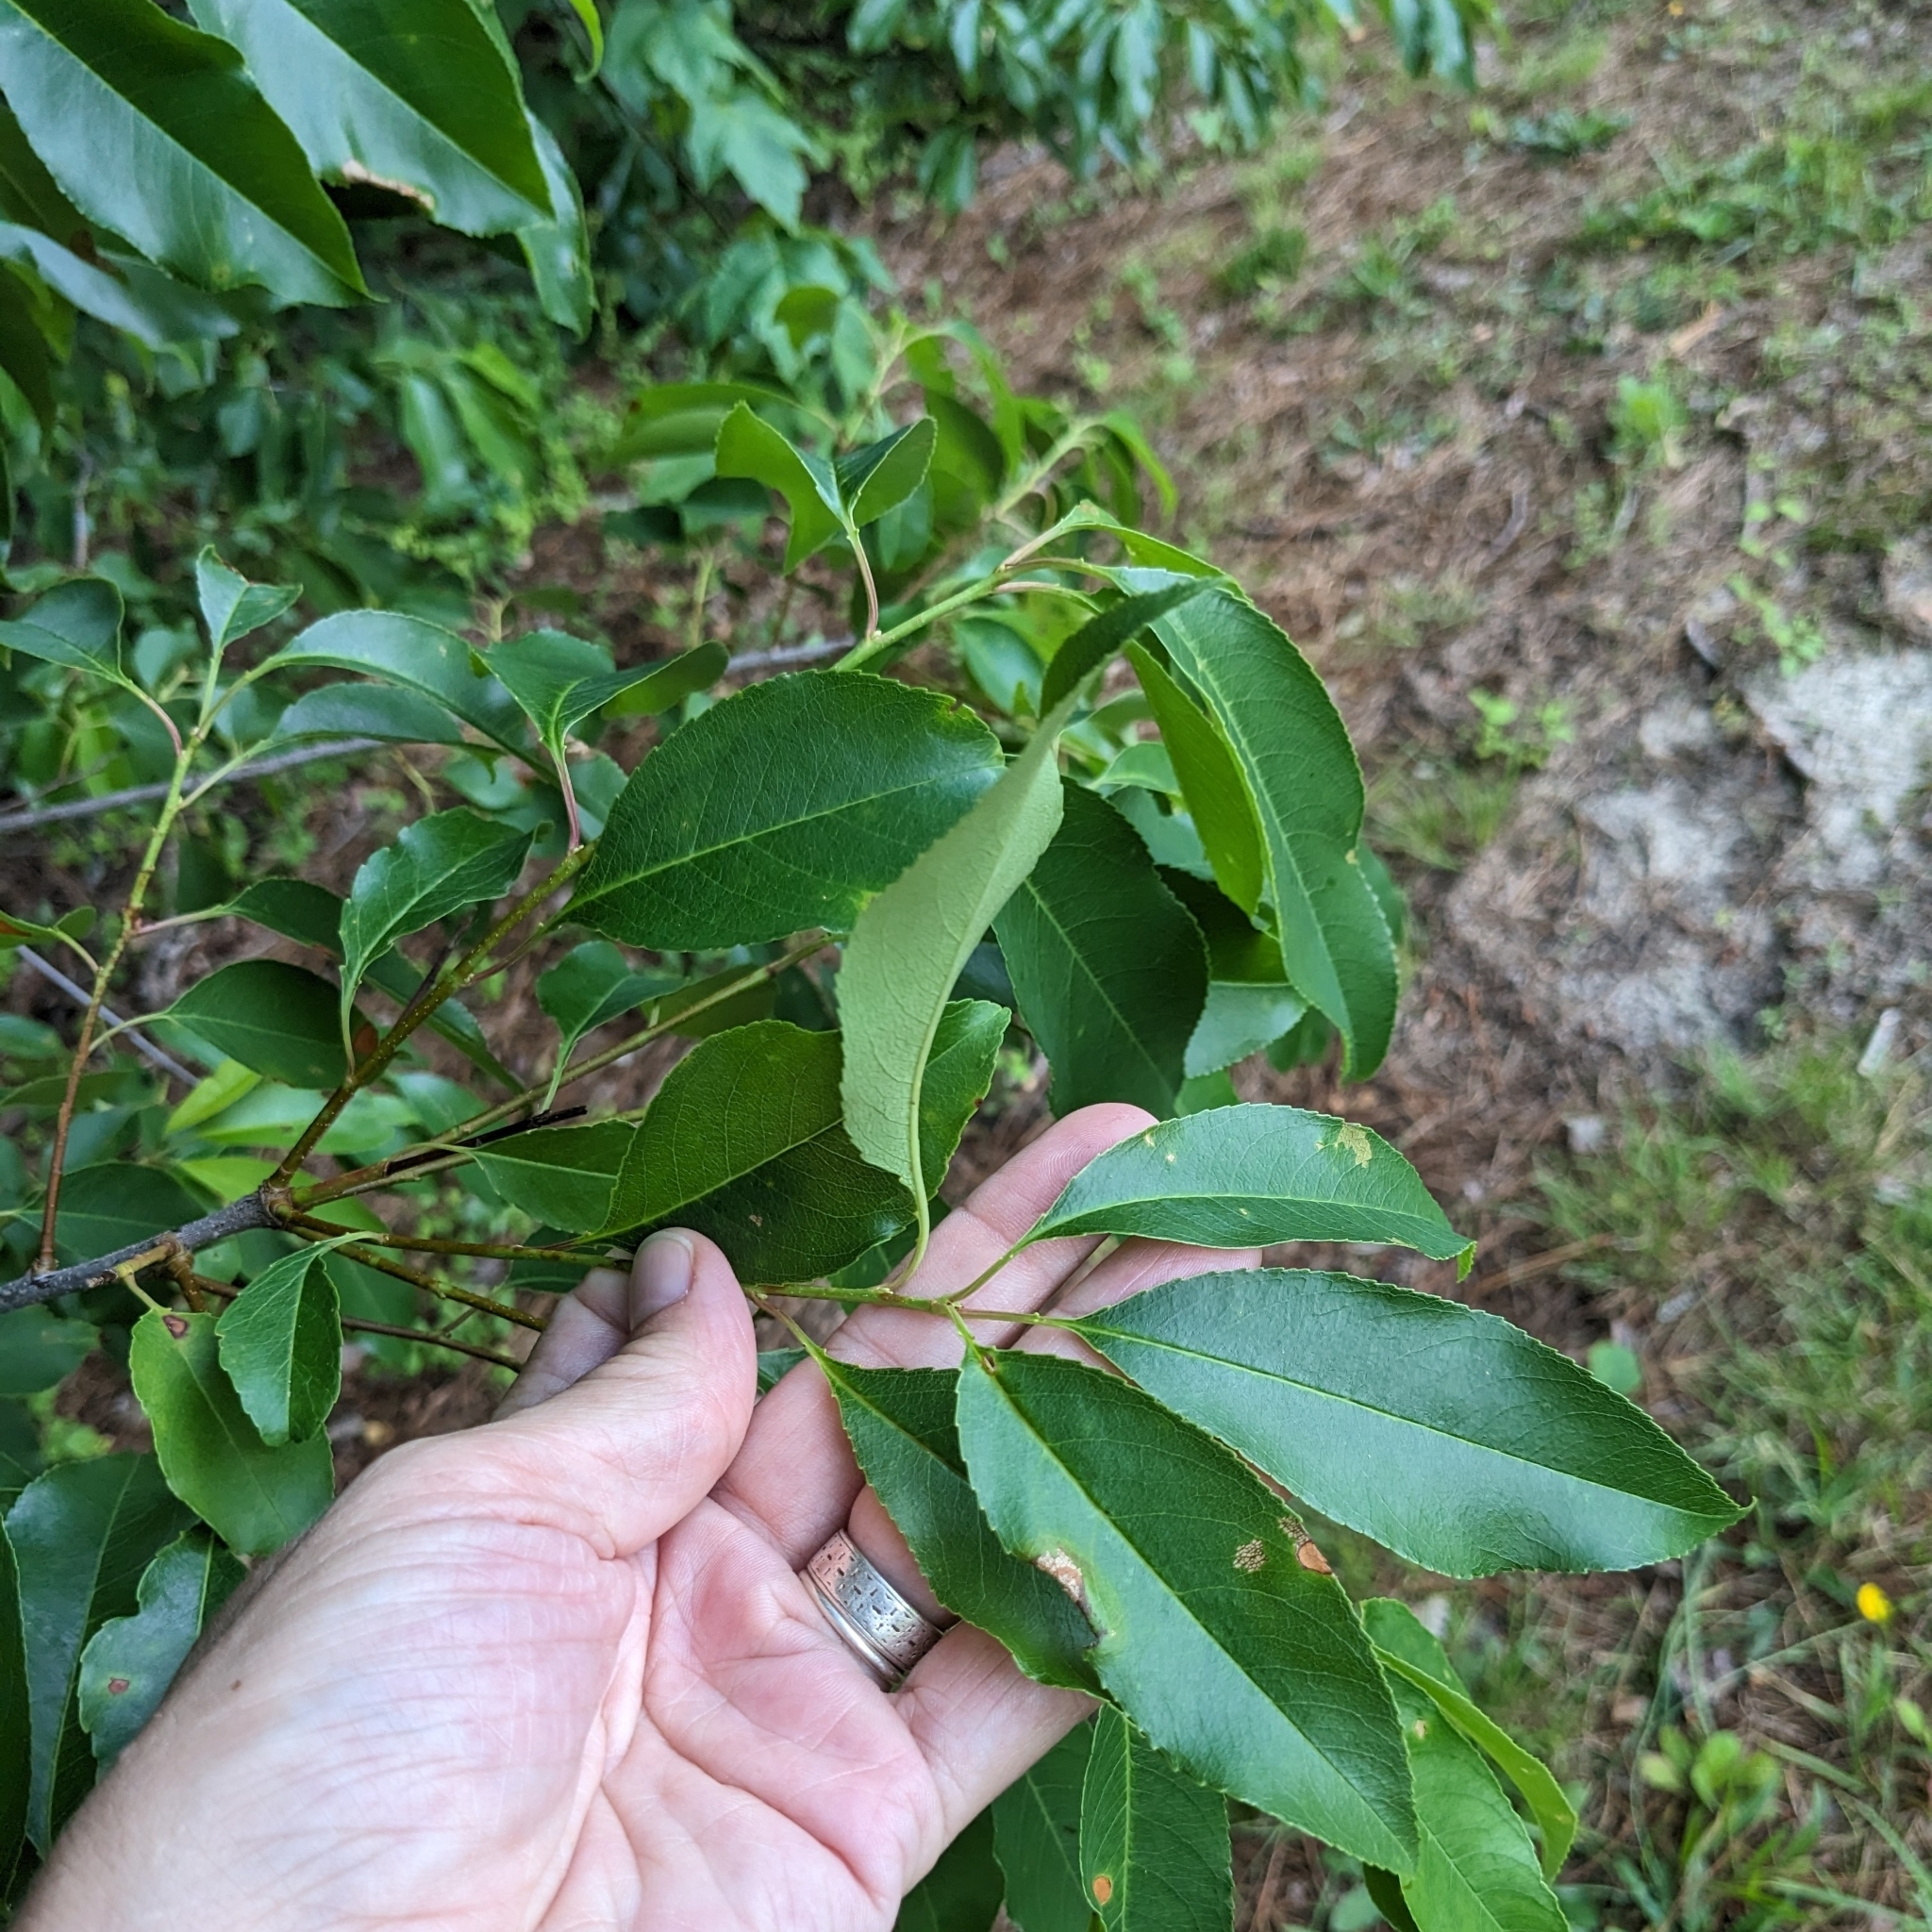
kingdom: Plantae
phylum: Tracheophyta
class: Magnoliopsida
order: Rosales
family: Rosaceae
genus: Prunus
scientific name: Prunus serotina
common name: Black cherry
